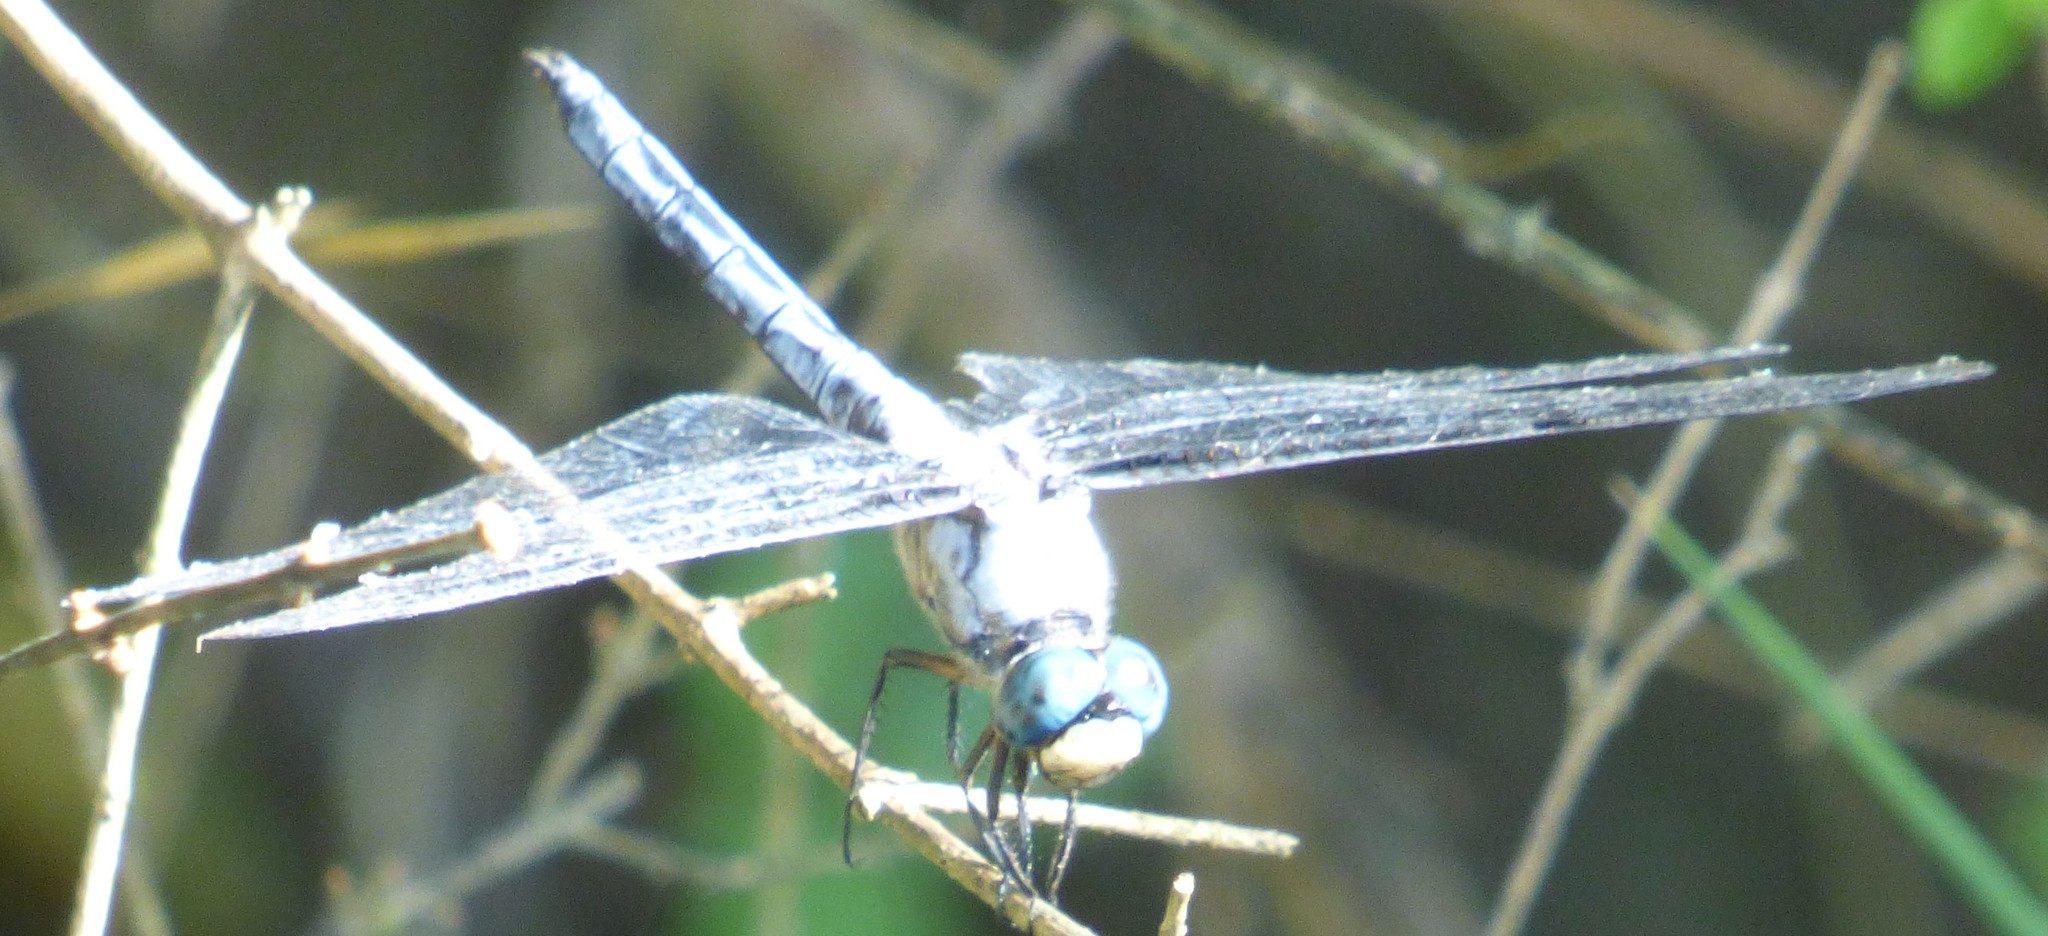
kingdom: Animalia
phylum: Arthropoda
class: Insecta
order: Odonata
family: Libellulidae
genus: Libellula
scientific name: Libellula vibrans
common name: Great blue skimmer
